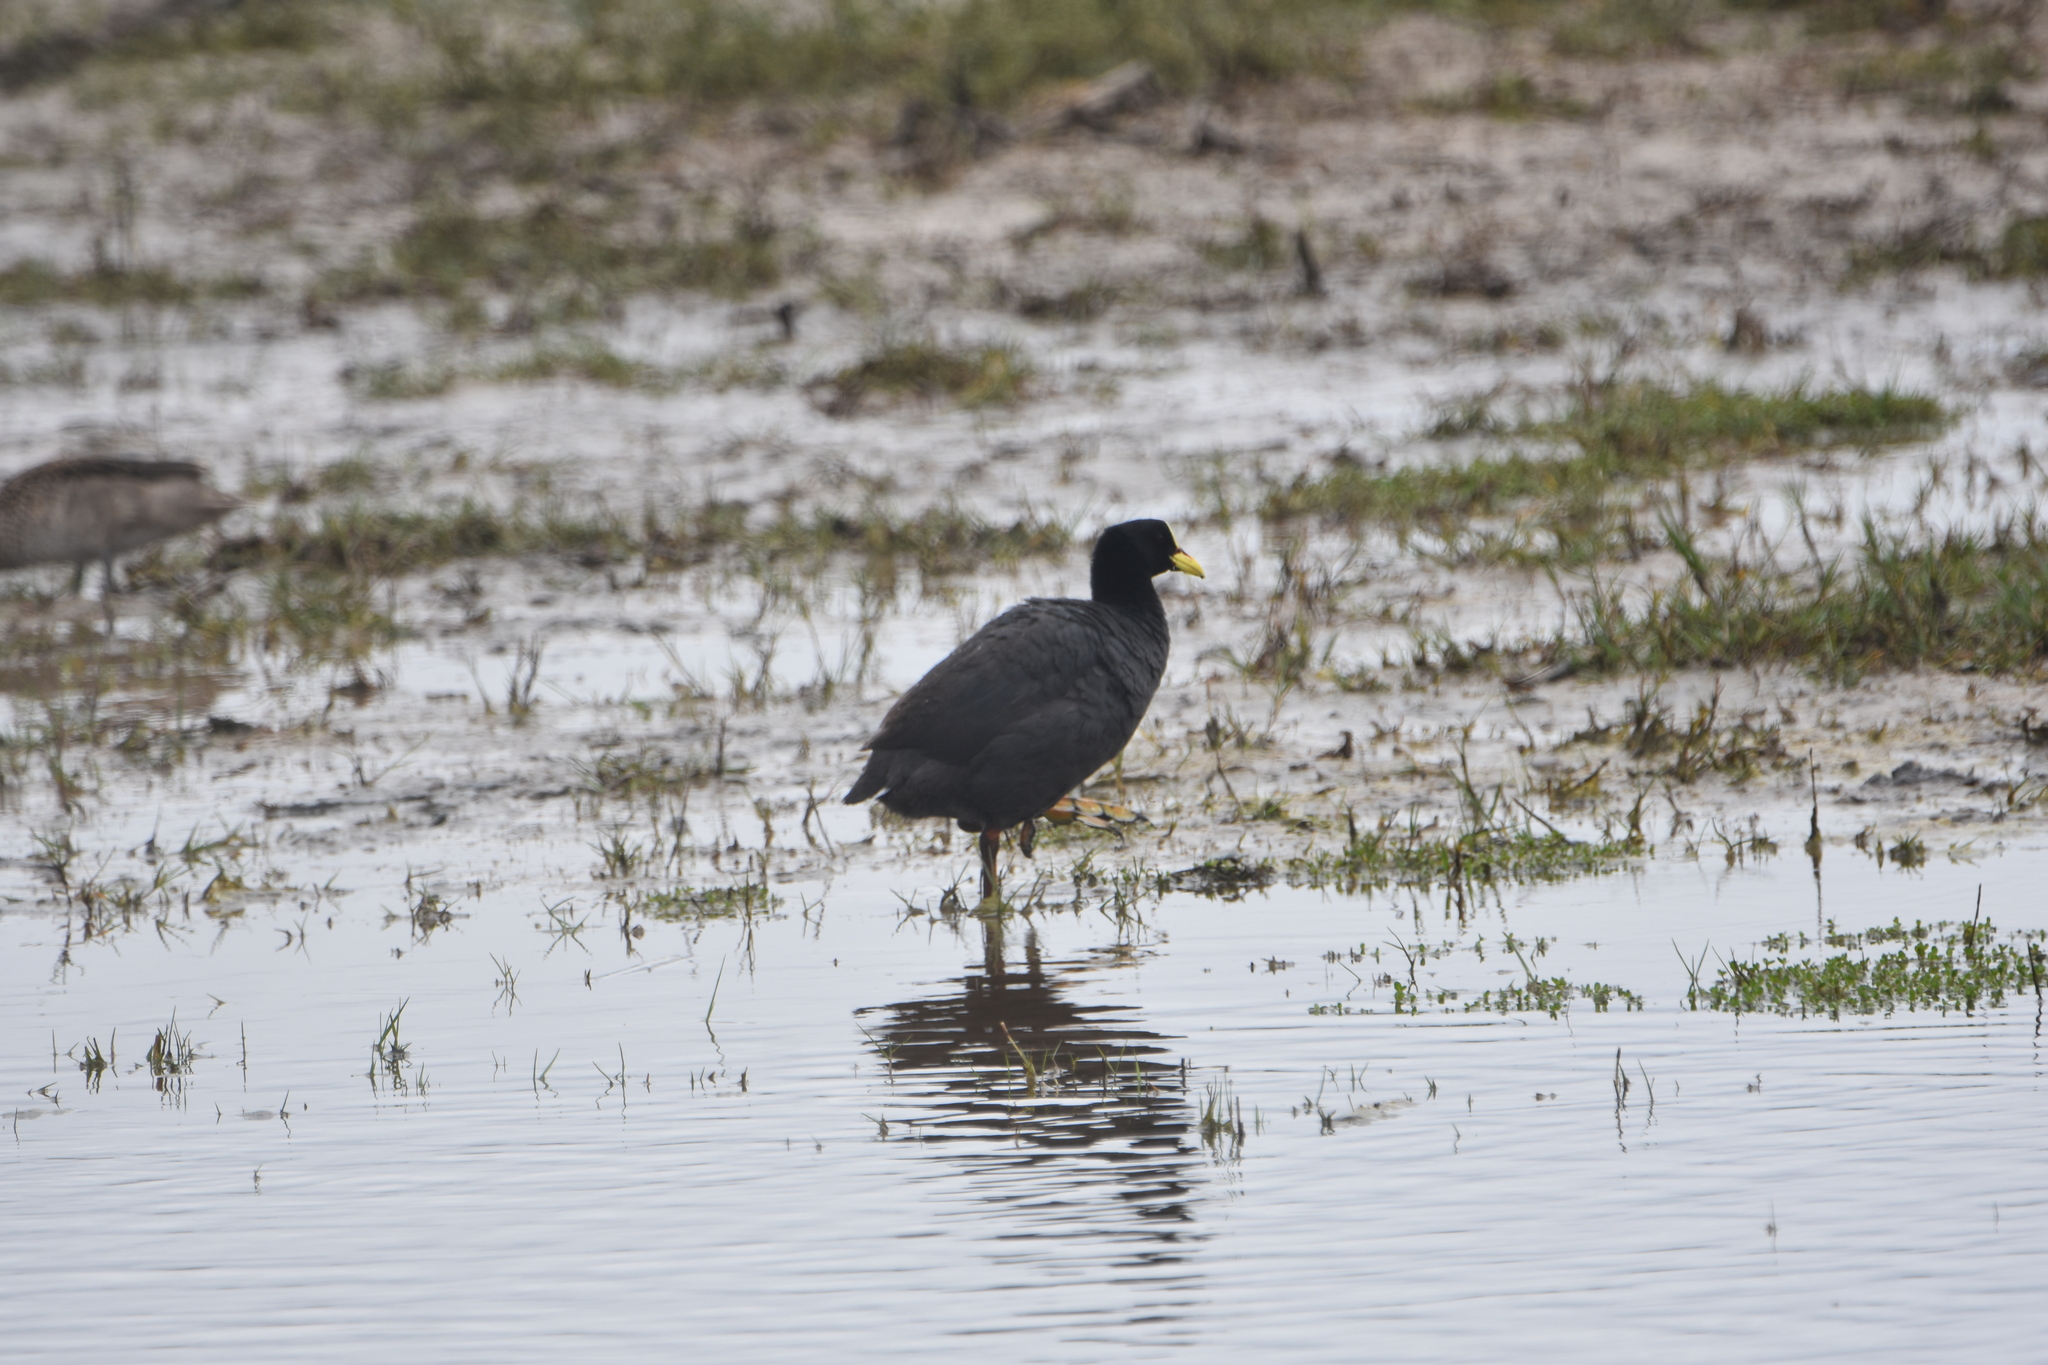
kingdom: Animalia
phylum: Chordata
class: Aves
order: Gruiformes
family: Rallidae
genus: Fulica
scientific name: Fulica armillata
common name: Red-gartered coot
